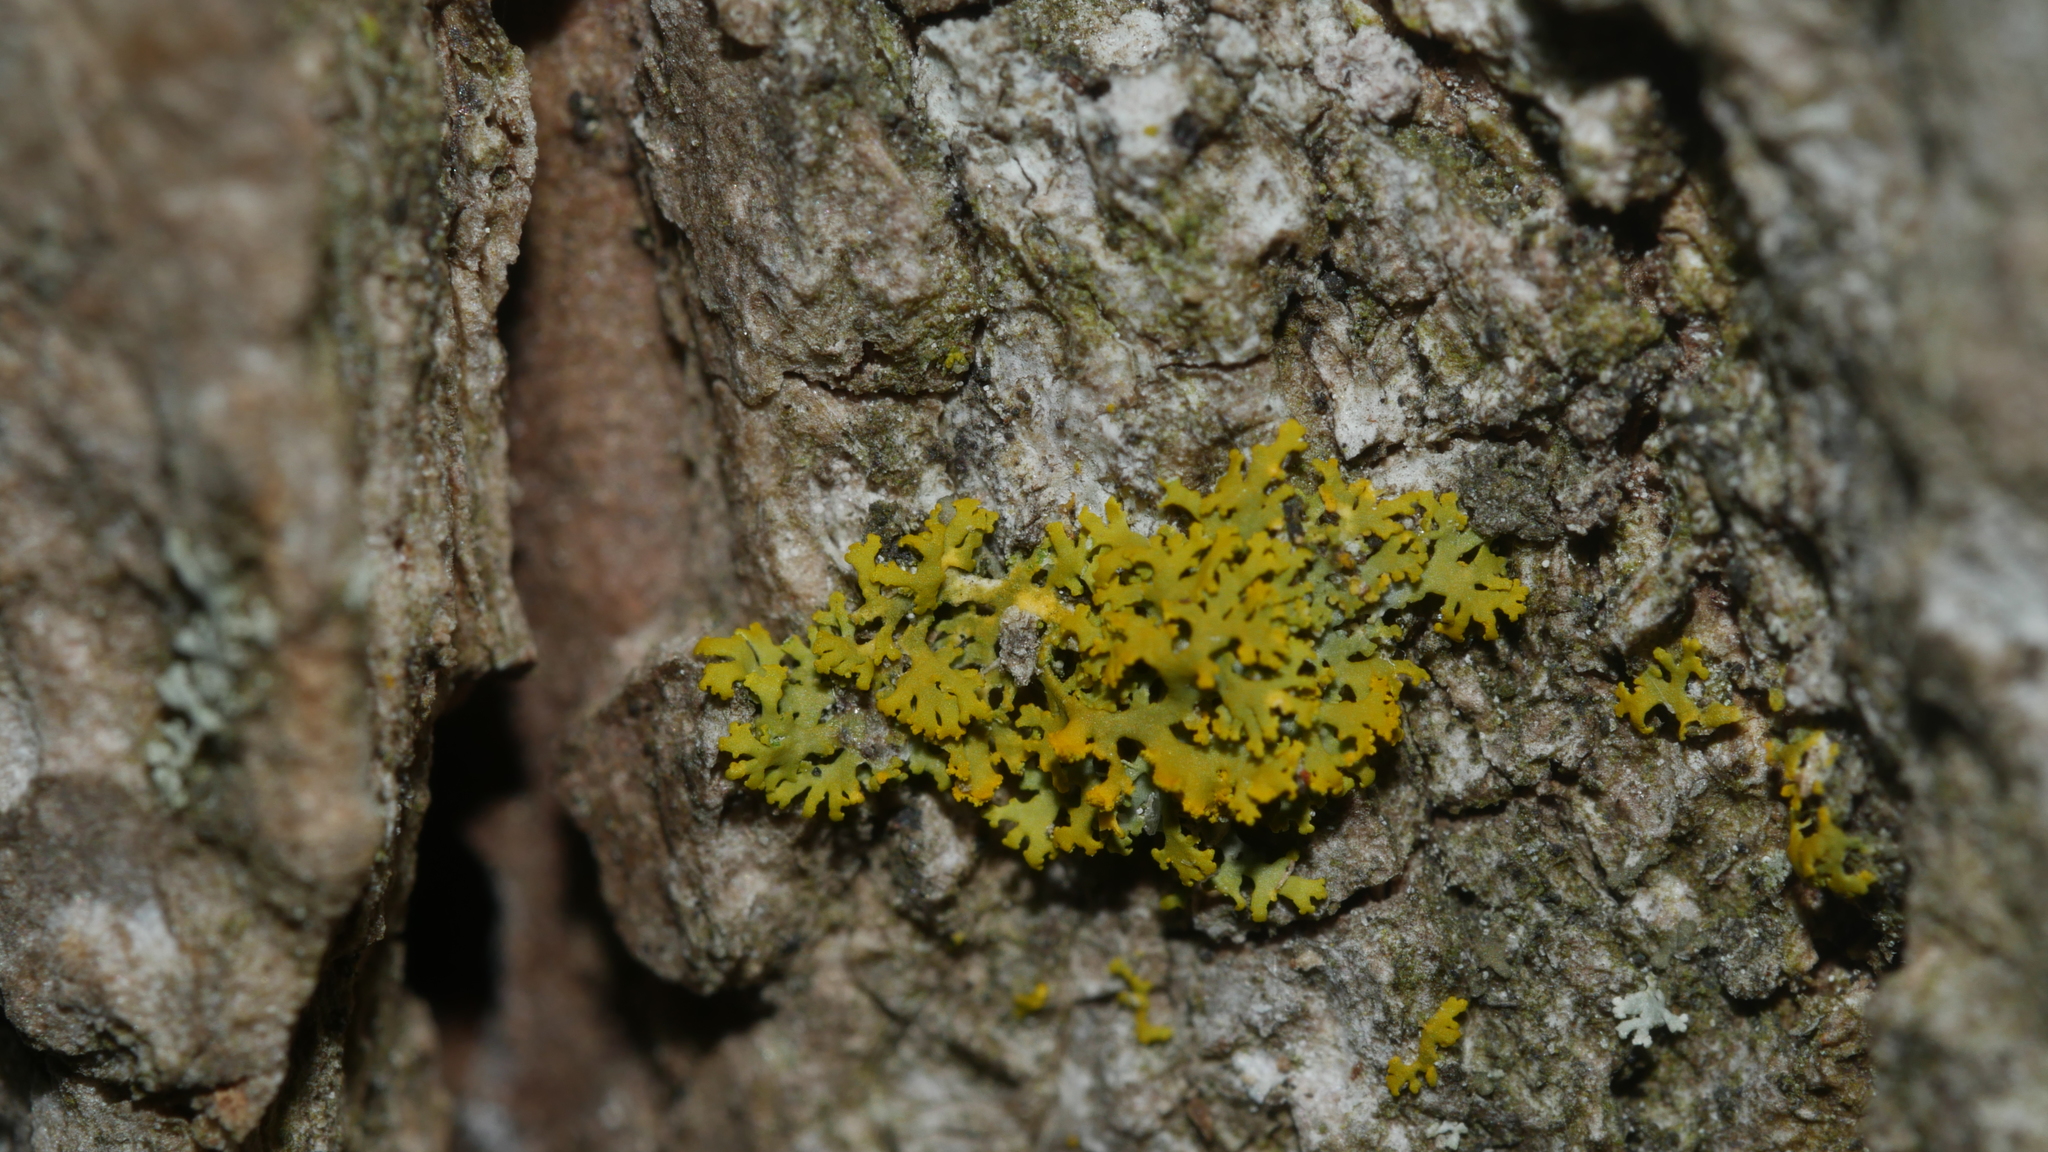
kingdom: Fungi
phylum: Ascomycota
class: Candelariomycetes
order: Candelariales
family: Candelariaceae
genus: Candelaria
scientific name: Candelaria concolor
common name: Candleflame lichen
